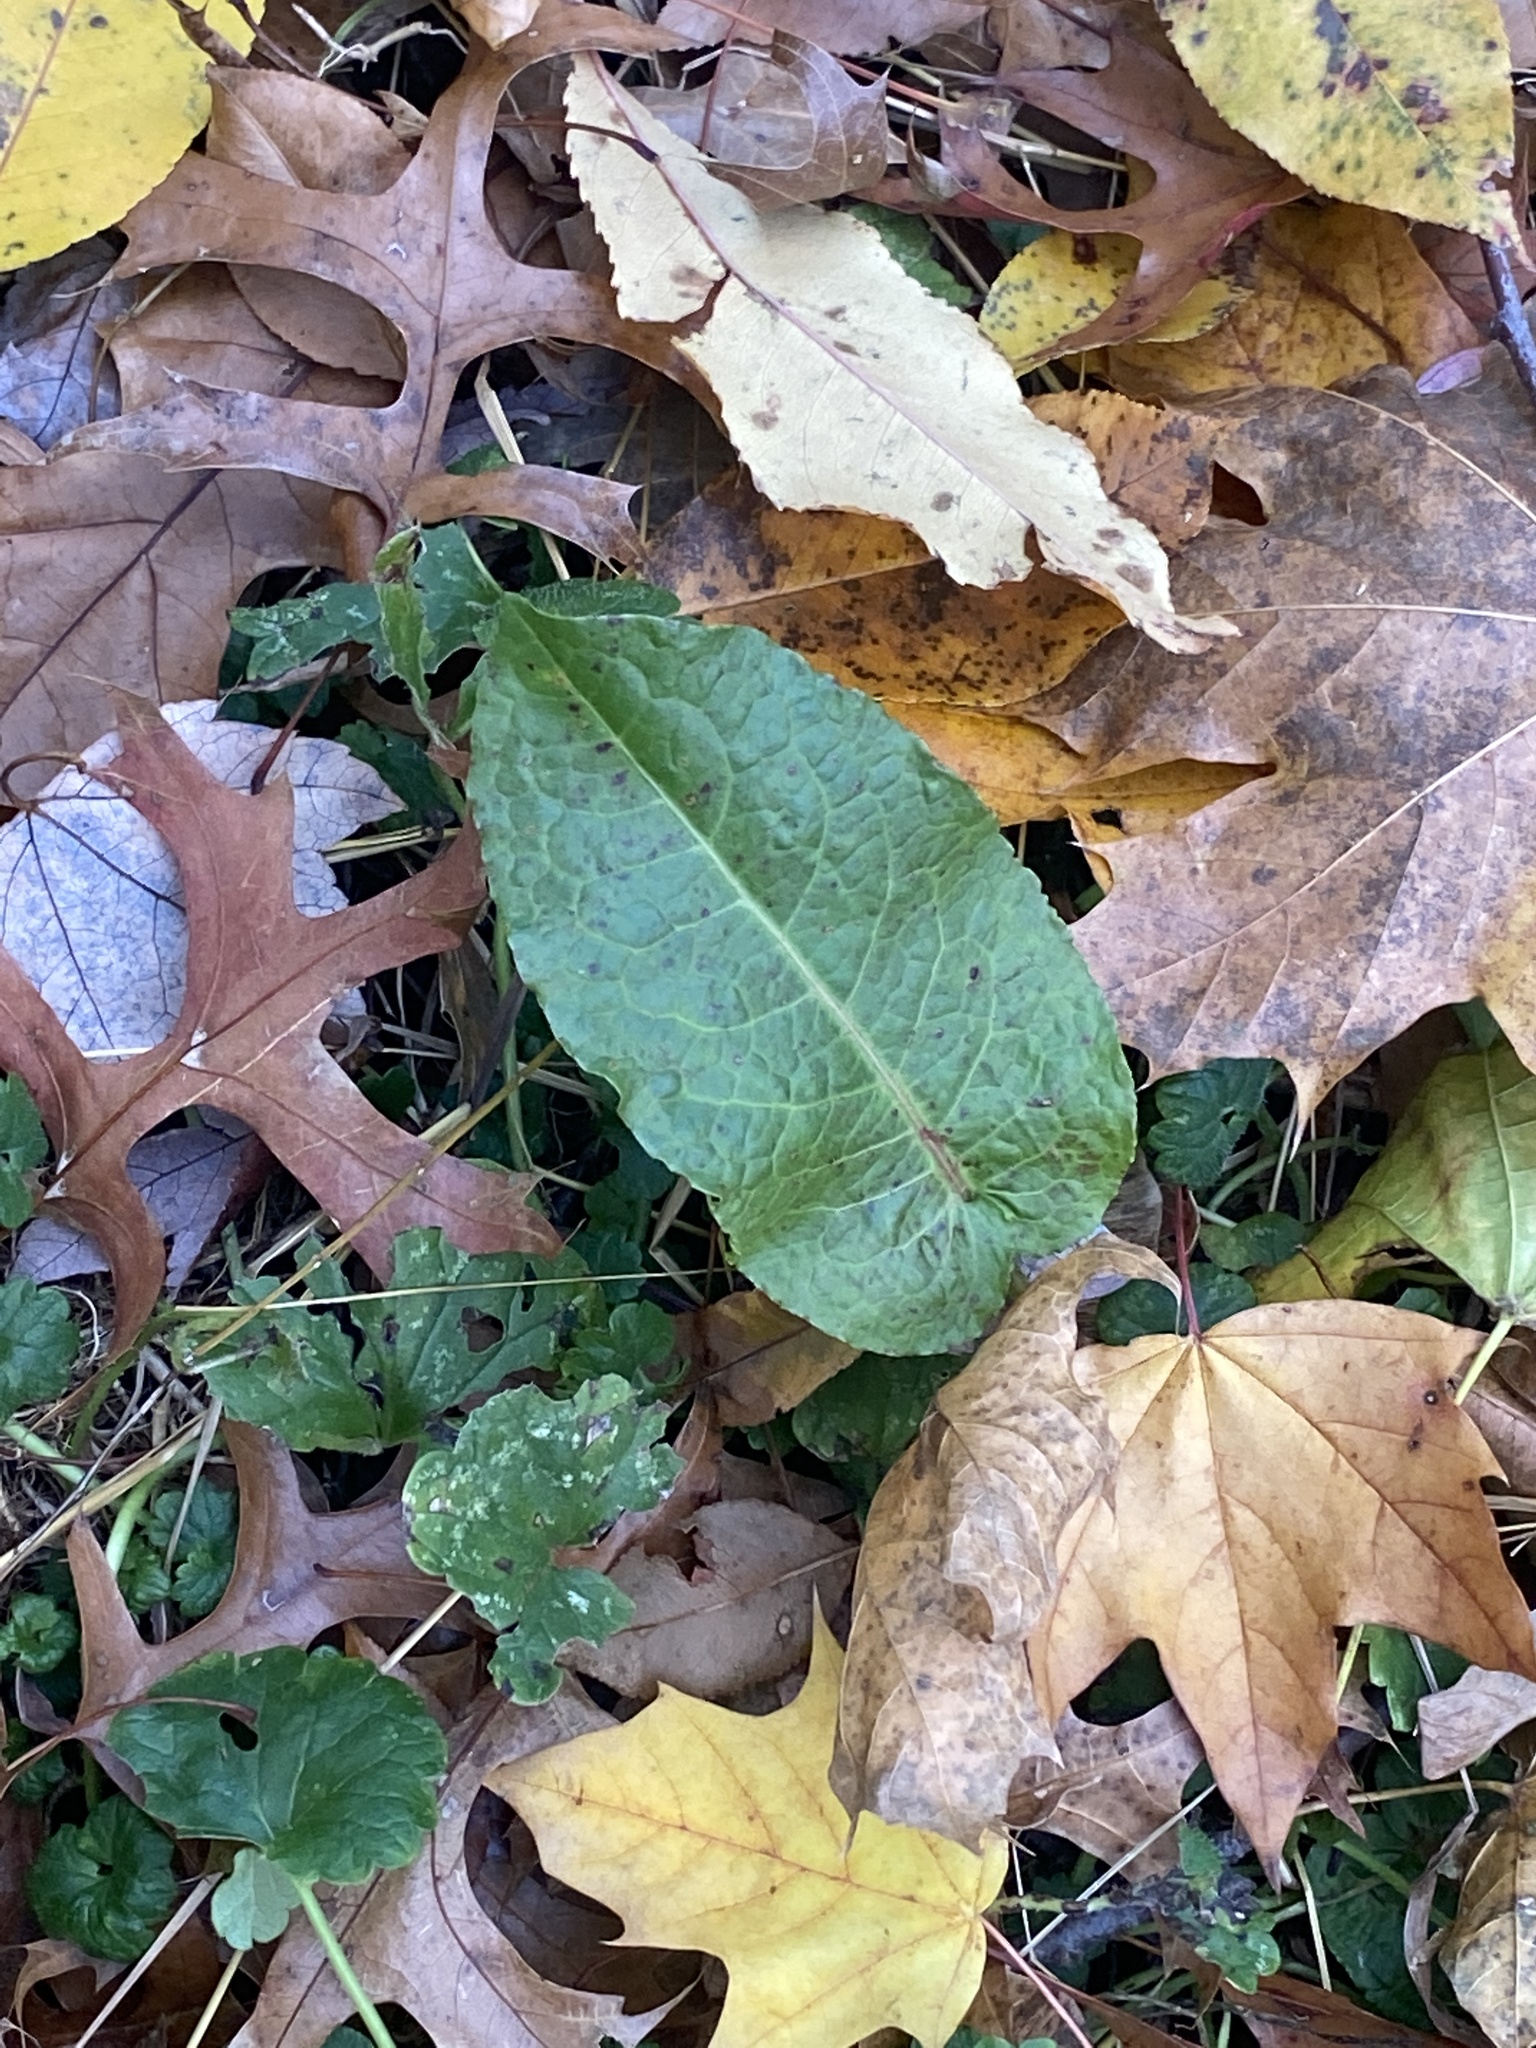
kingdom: Plantae
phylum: Tracheophyta
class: Magnoliopsida
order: Caryophyllales
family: Polygonaceae
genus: Rumex
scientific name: Rumex obtusifolius
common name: Bitter dock
